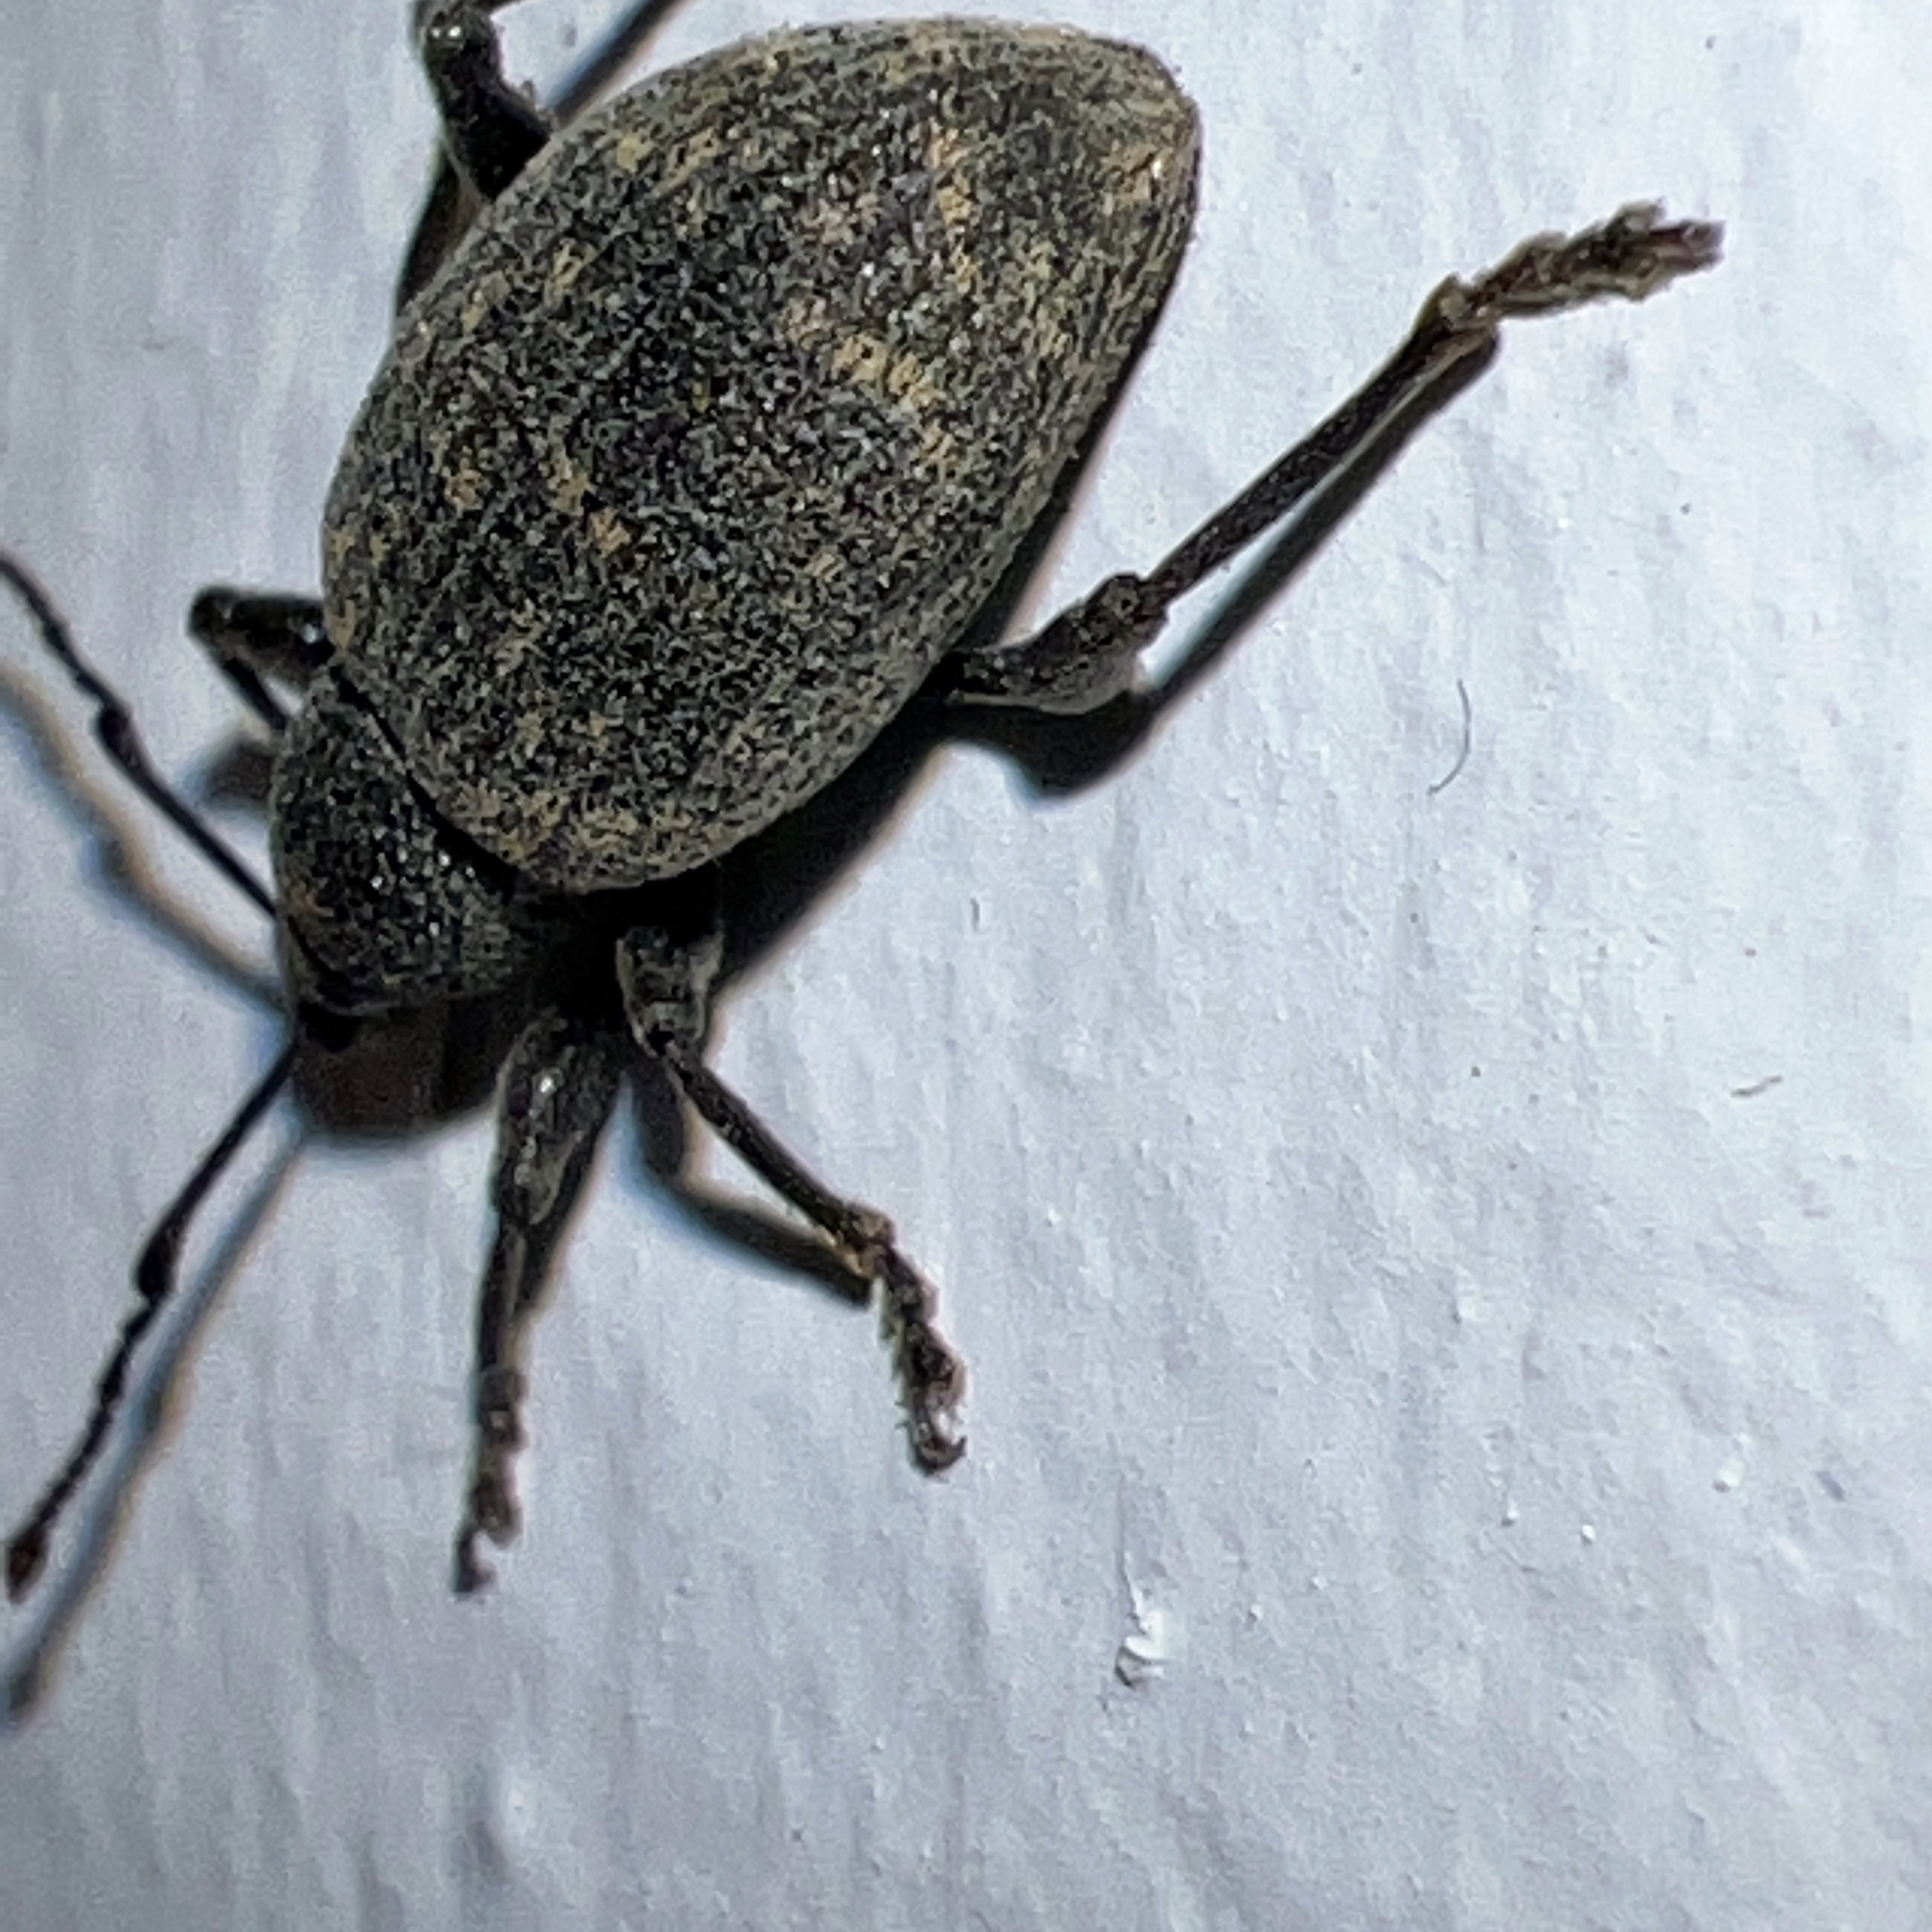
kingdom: Animalia
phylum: Arthropoda
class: Insecta
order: Coleoptera
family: Curculionidae
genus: Otiorhynchus
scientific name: Otiorhynchus sulcatus
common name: Black vine weevil
